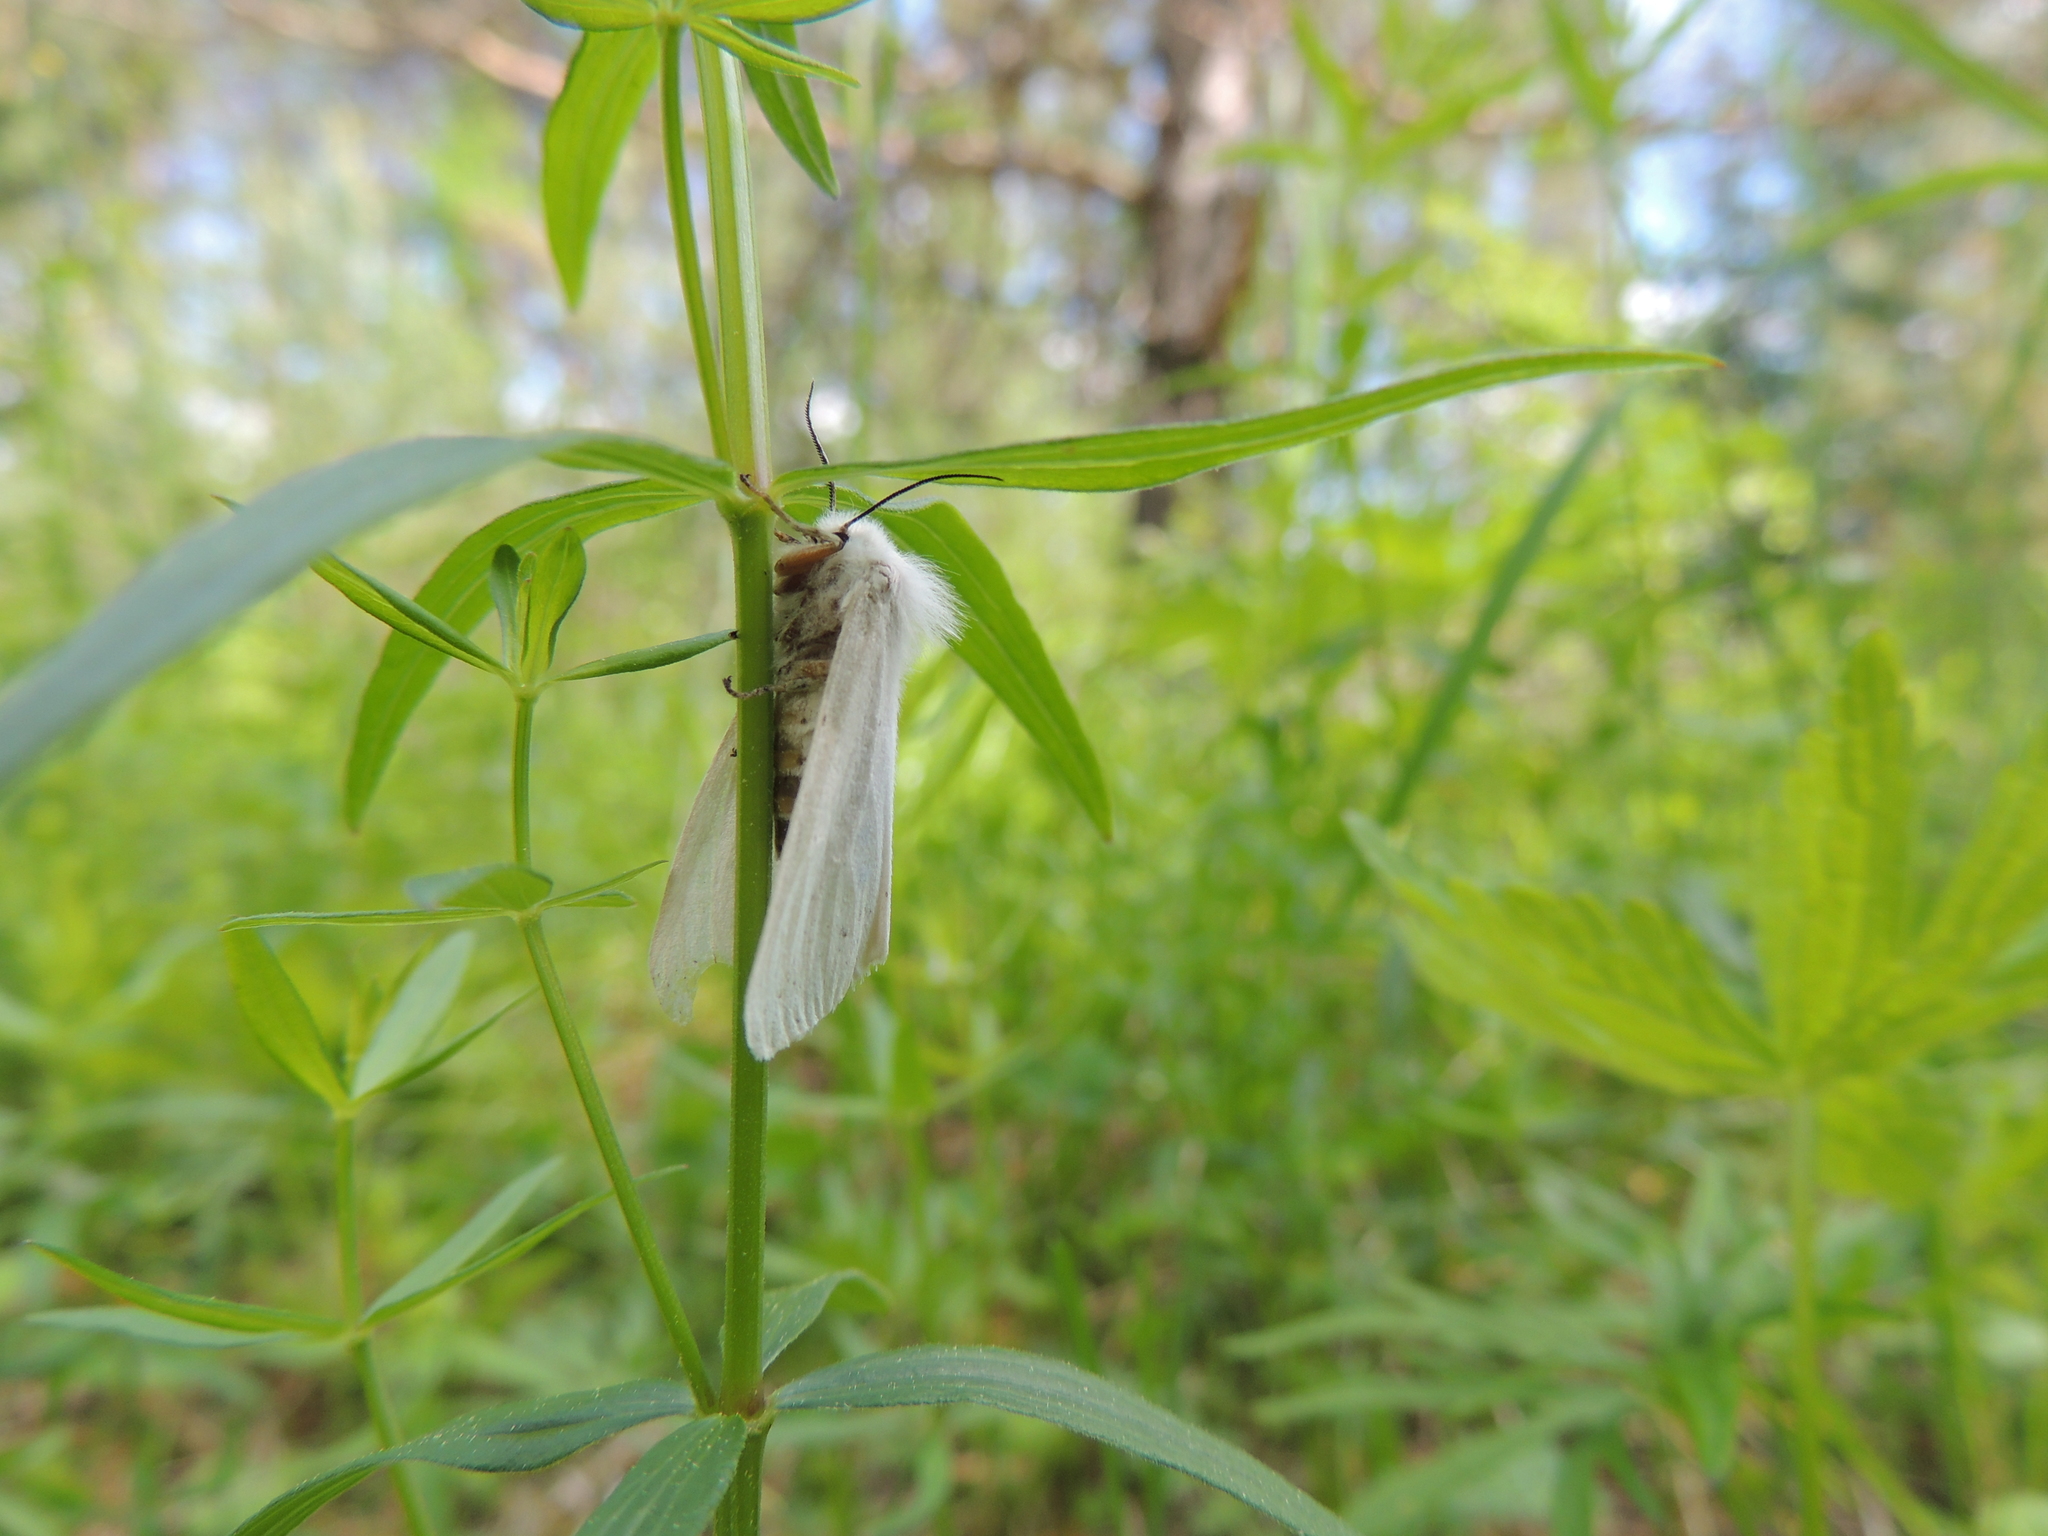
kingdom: Animalia
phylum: Arthropoda
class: Insecta
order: Lepidoptera
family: Erebidae
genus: Spilosoma
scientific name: Spilosoma urticae
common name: Water ermine
